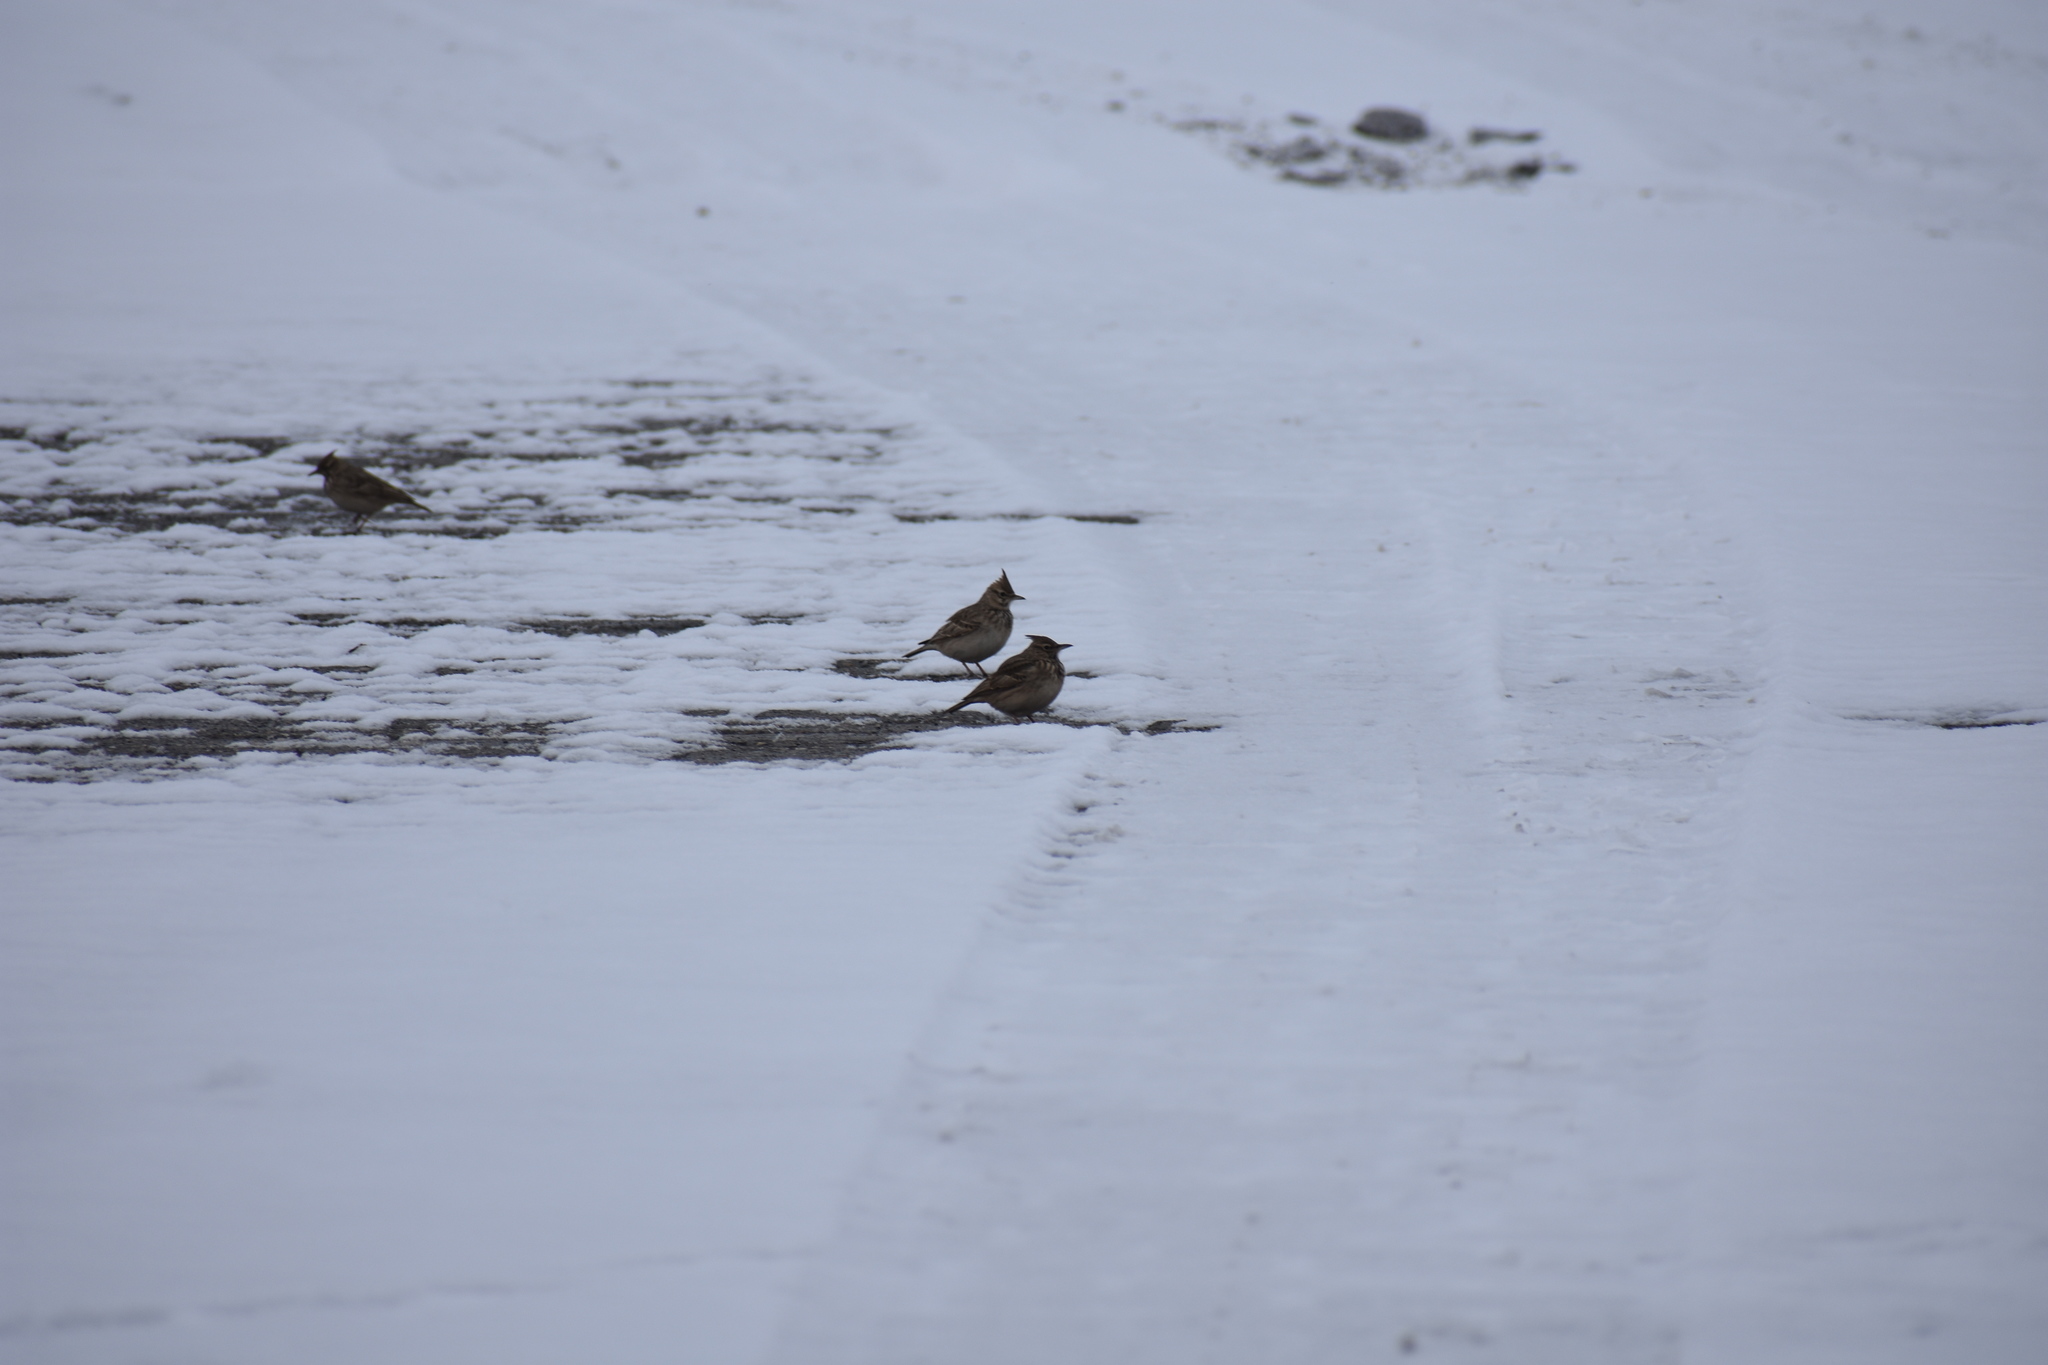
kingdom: Animalia
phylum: Chordata
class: Aves
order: Passeriformes
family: Alaudidae
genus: Galerida
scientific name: Galerida cristata
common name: Crested lark
